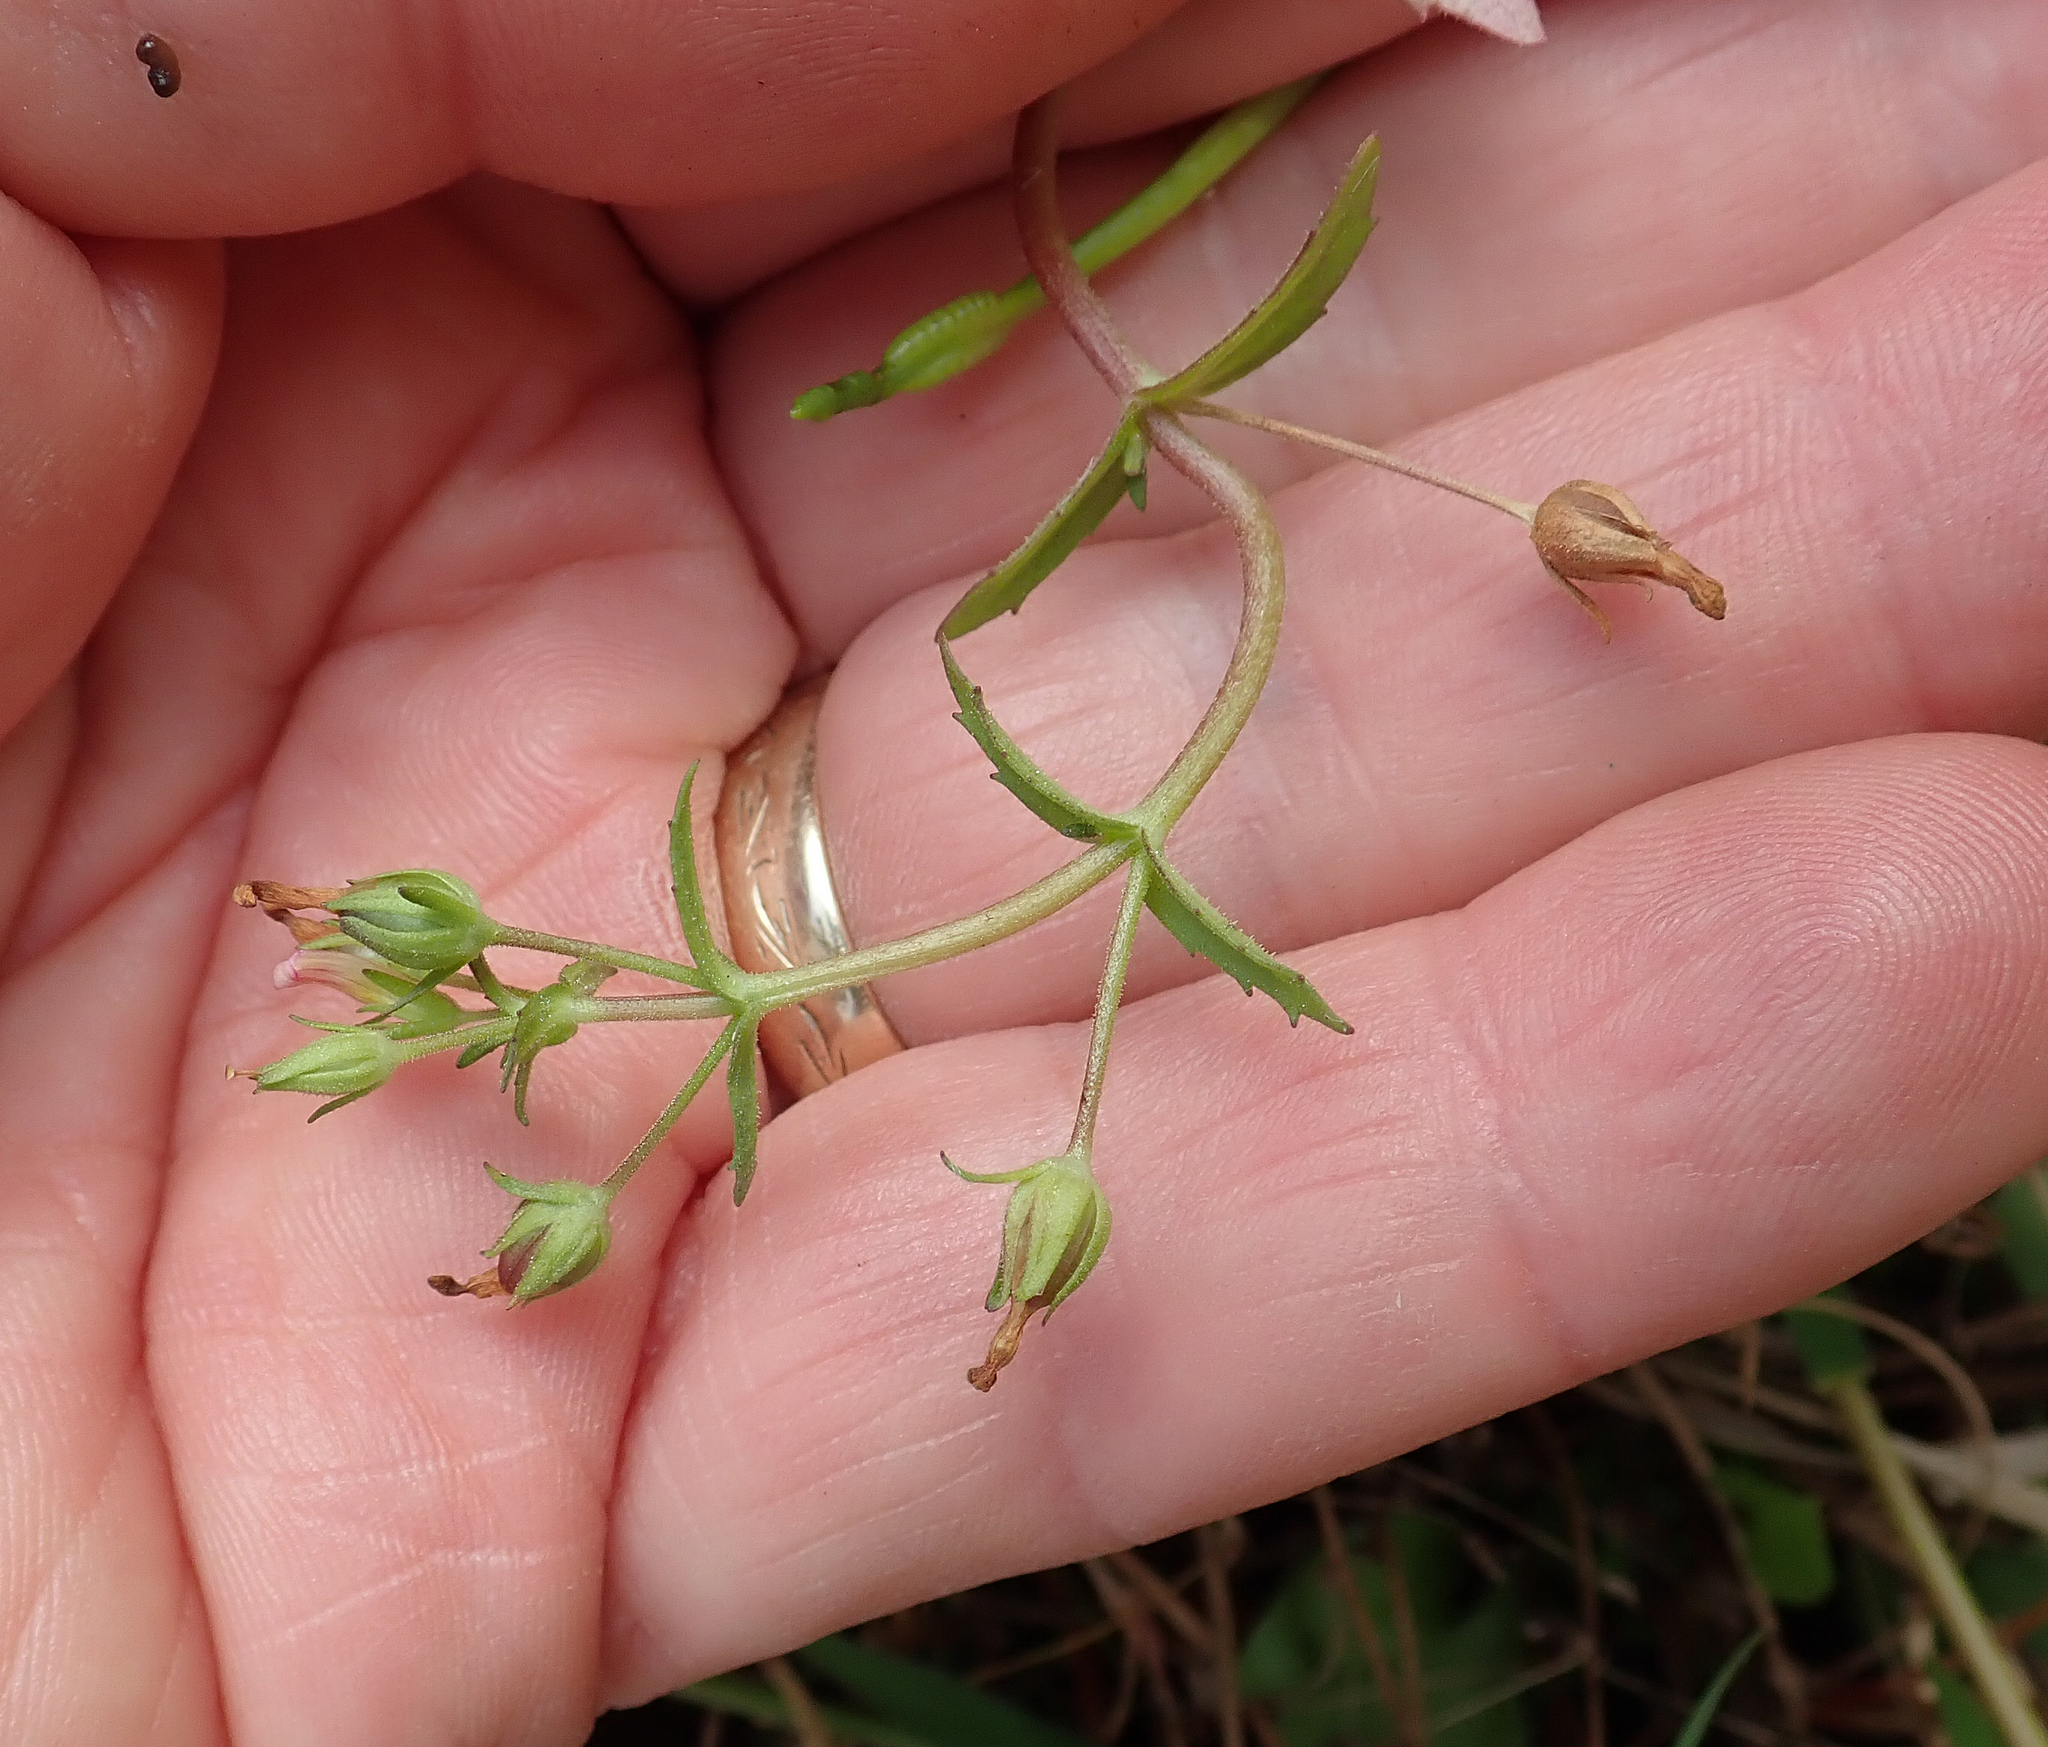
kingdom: Plantae
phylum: Tracheophyta
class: Magnoliopsida
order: Lamiales
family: Plantaginaceae
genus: Gratiola
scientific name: Gratiola pedunculata
